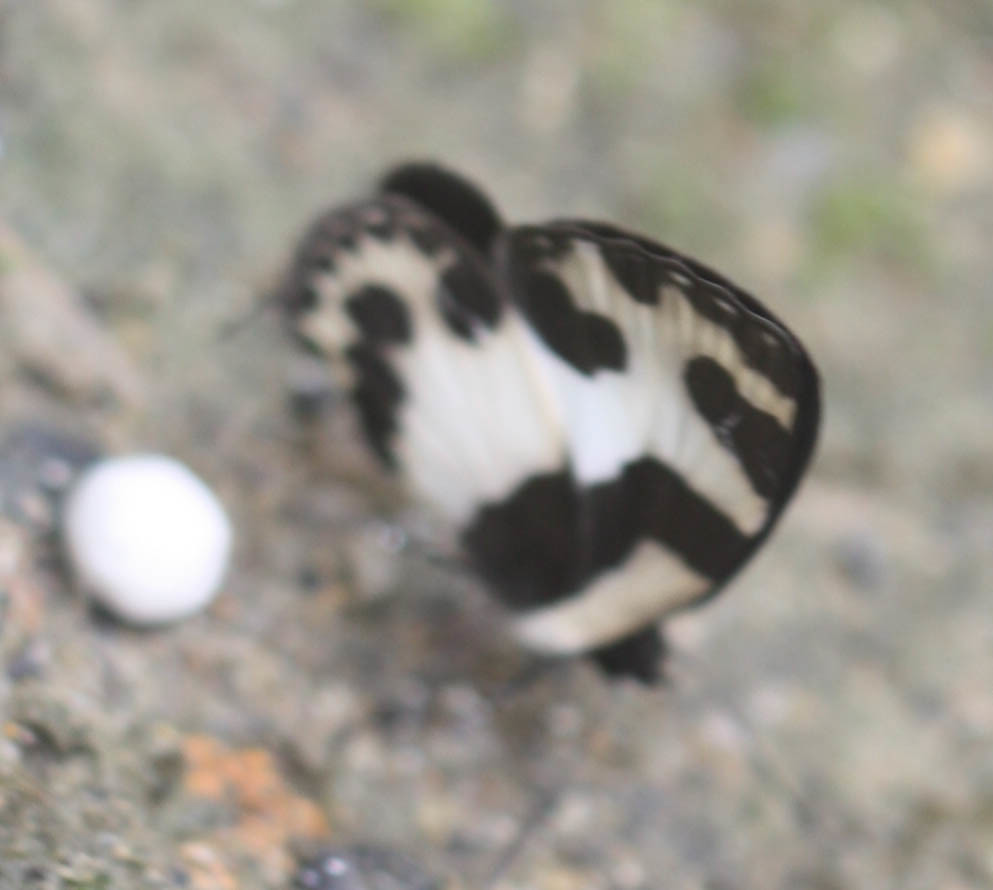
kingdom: Animalia
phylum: Arthropoda
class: Insecta
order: Lepidoptera
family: Lycaenidae
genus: Caleta
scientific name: Caleta elna
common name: Elbowed pierrot
